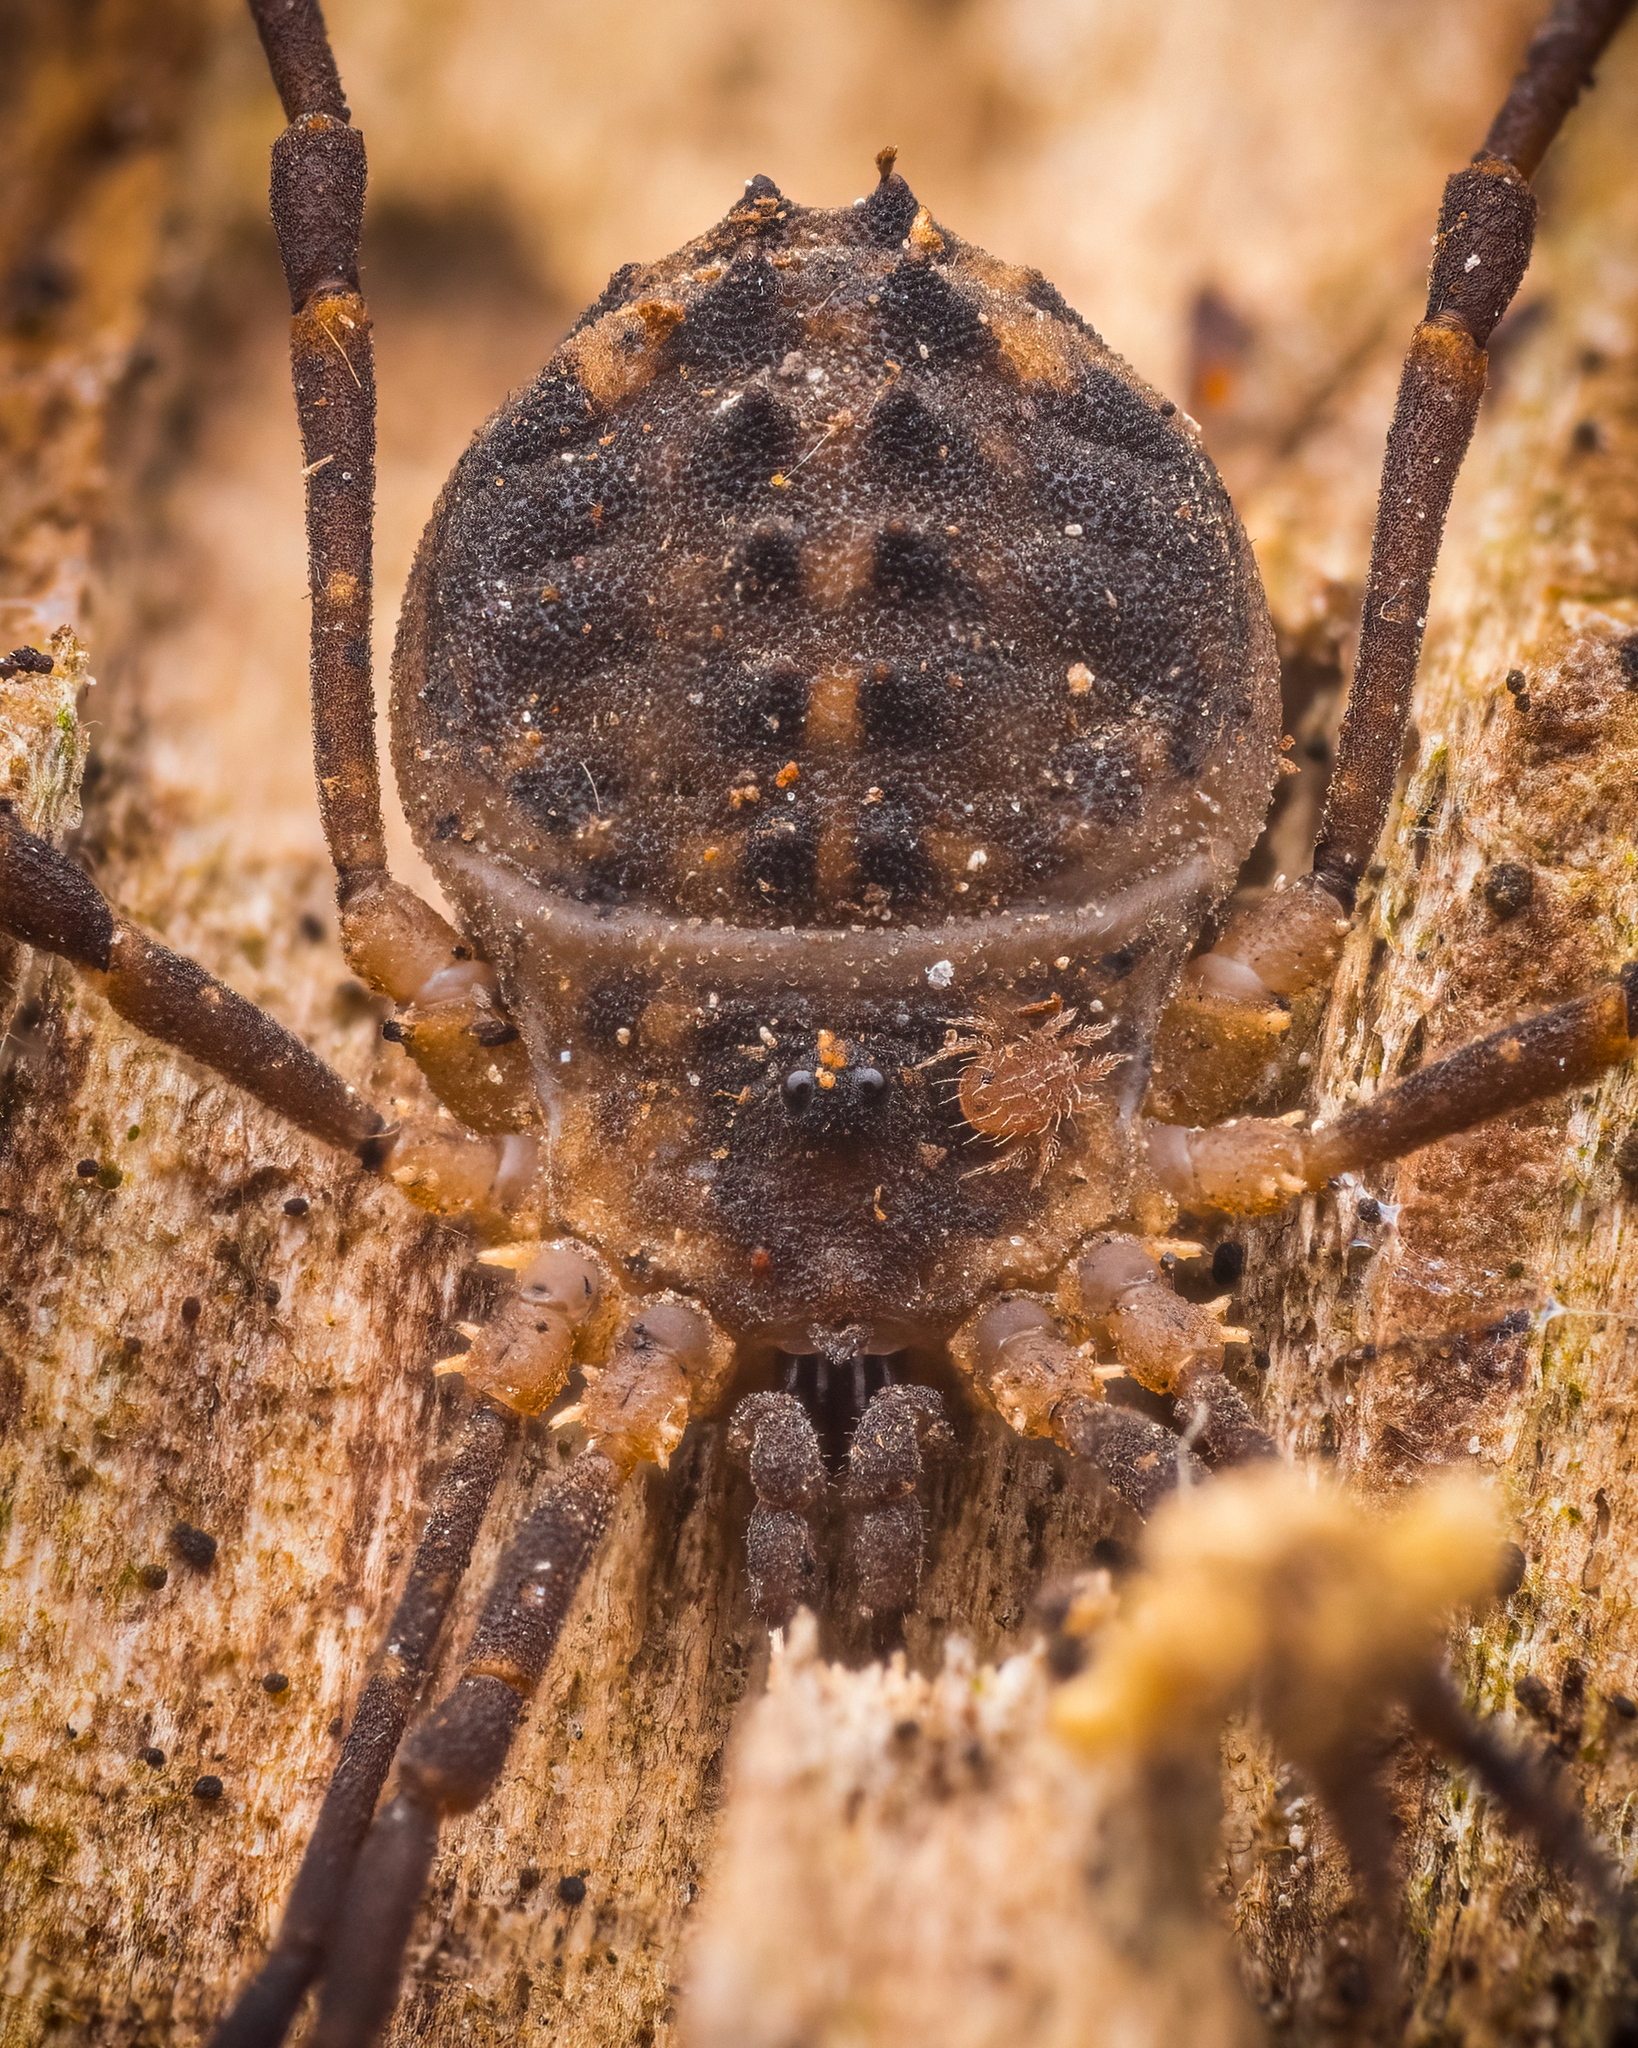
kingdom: Animalia
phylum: Arthropoda
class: Arachnida
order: Opiliones
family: Sclerosomatidae
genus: Astrobunus
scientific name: Astrobunus laevipes
